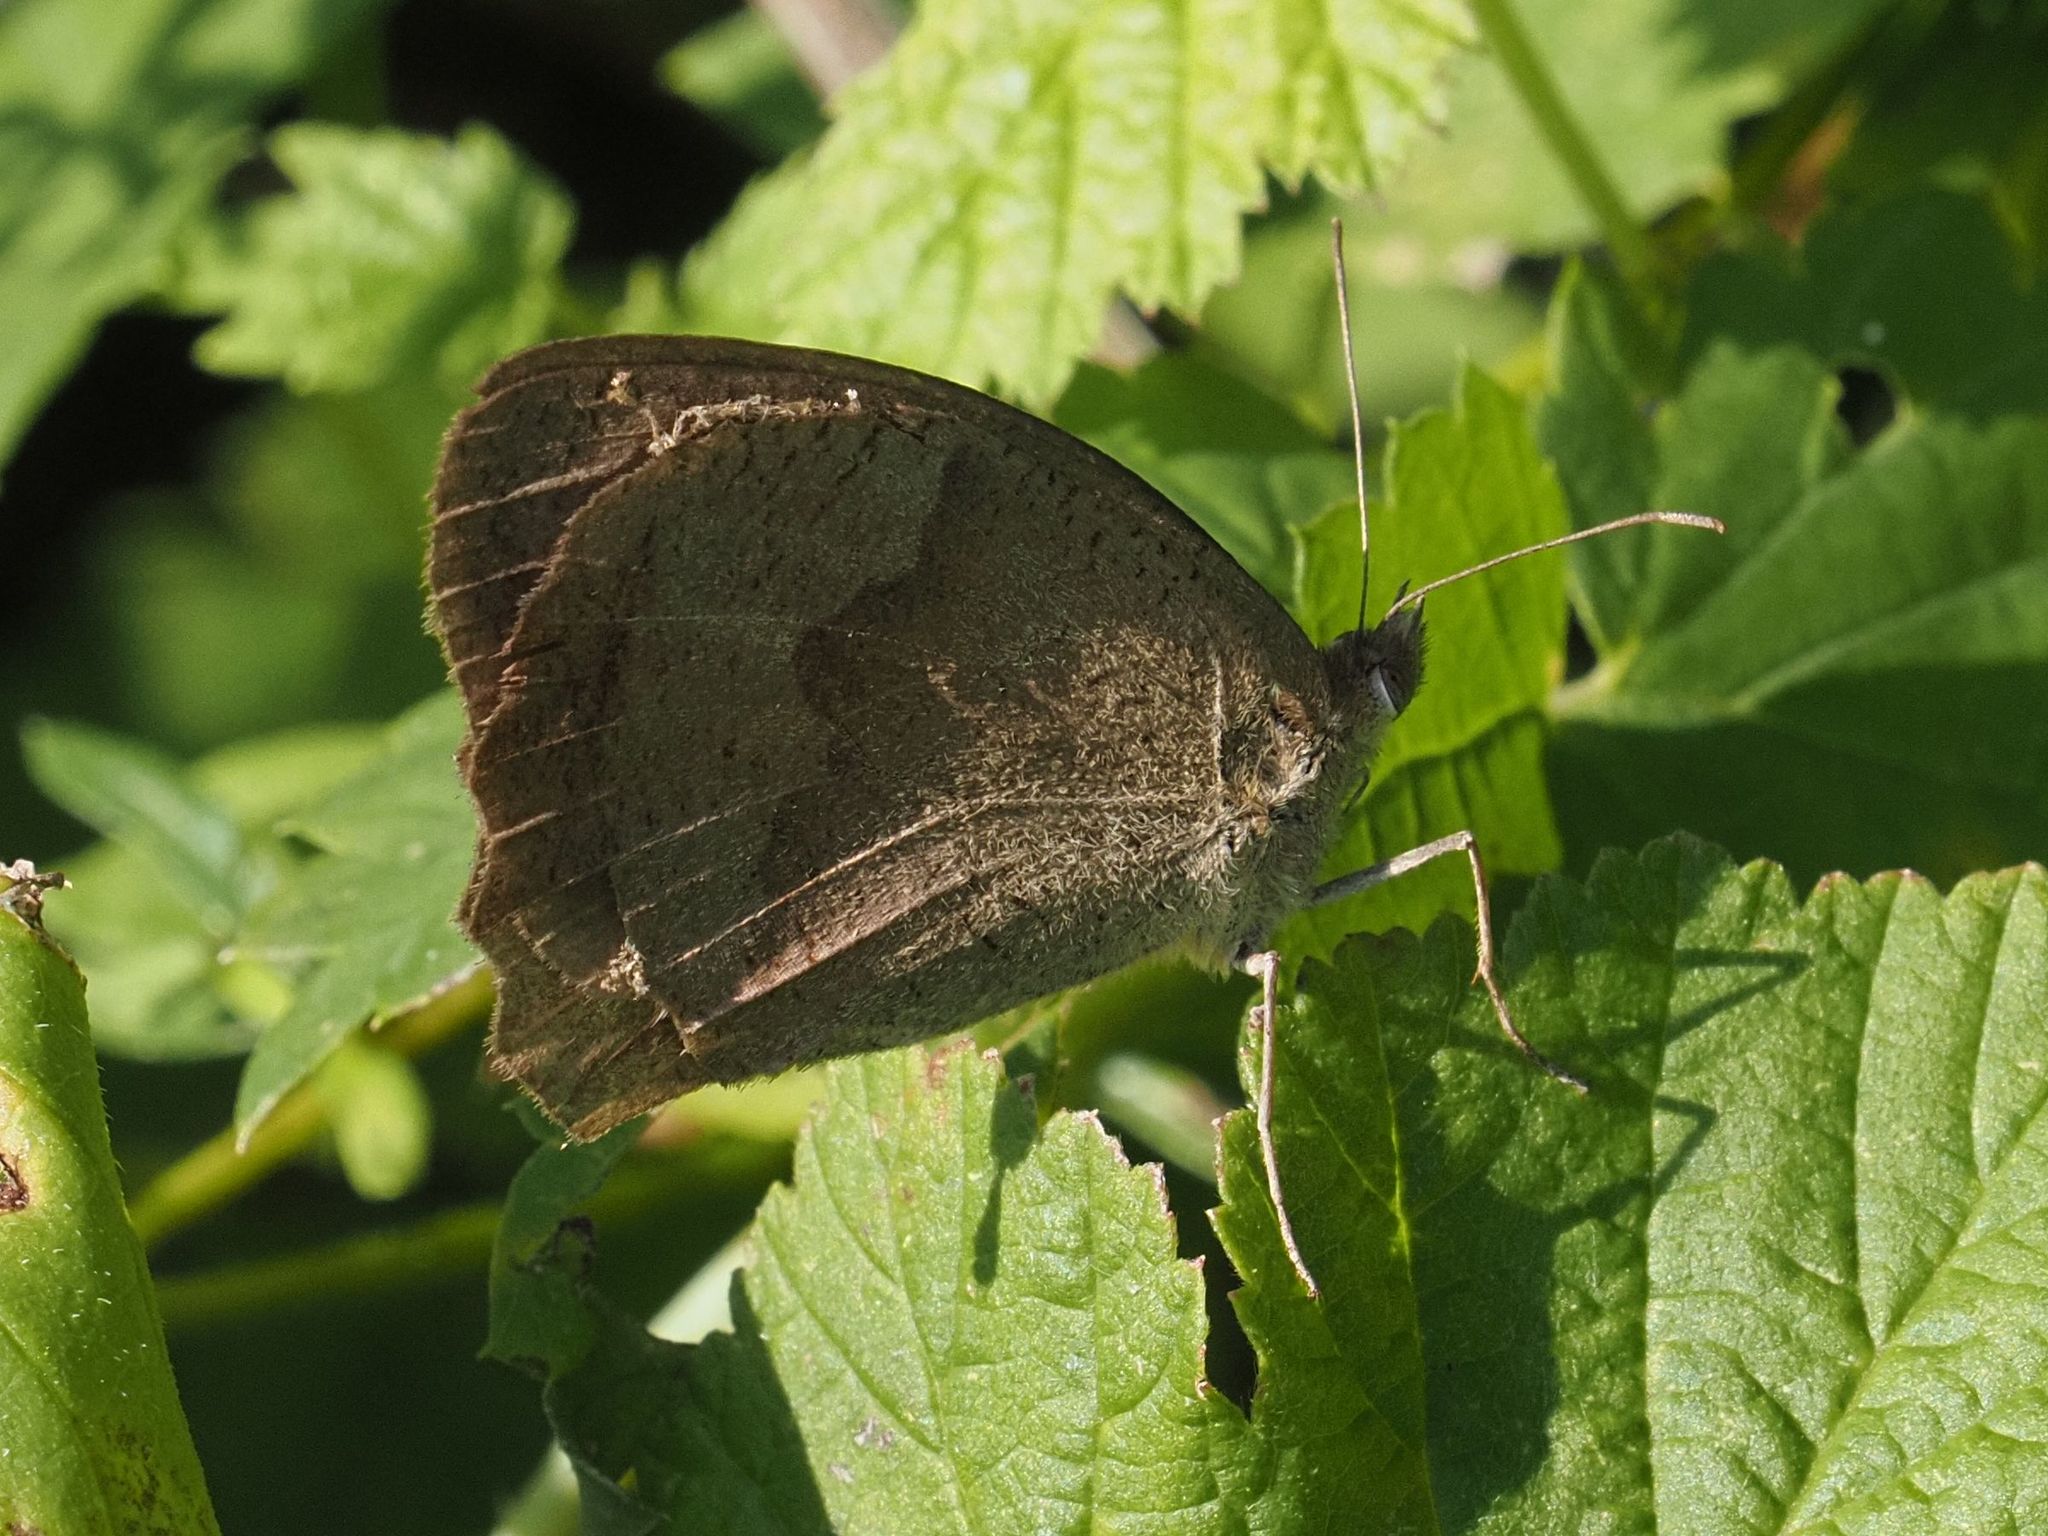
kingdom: Animalia
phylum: Arthropoda
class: Insecta
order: Lepidoptera
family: Nymphalidae
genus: Maniola
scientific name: Maniola jurtina
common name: Meadow brown
